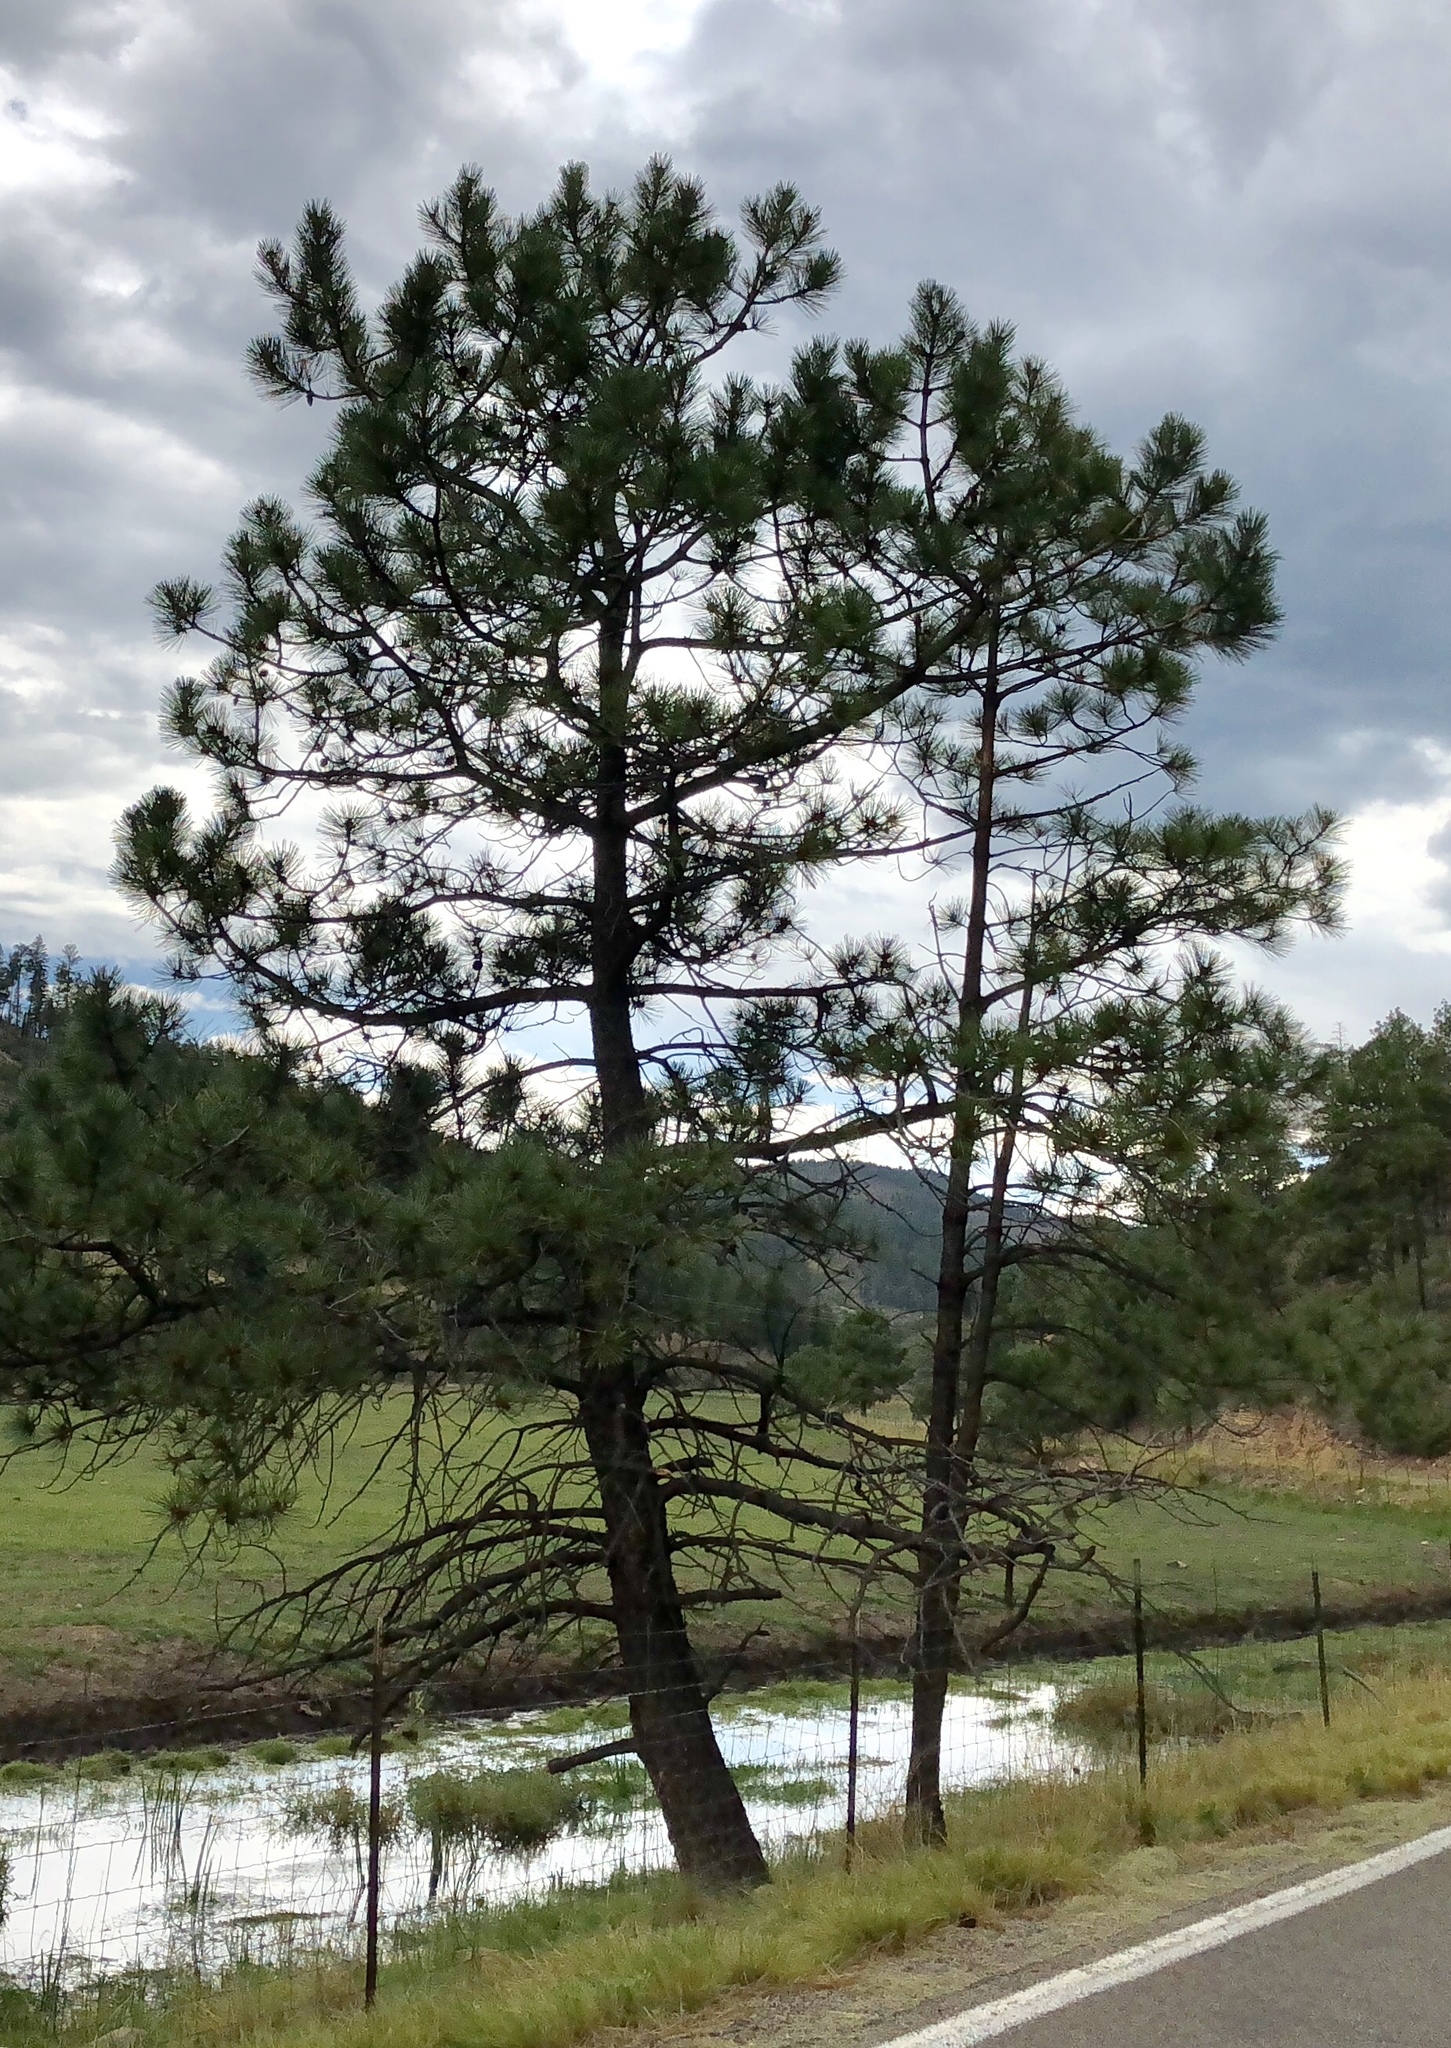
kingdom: Plantae
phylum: Tracheophyta
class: Pinopsida
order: Pinales
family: Pinaceae
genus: Pinus
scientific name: Pinus ponderosa
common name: Western yellow-pine
